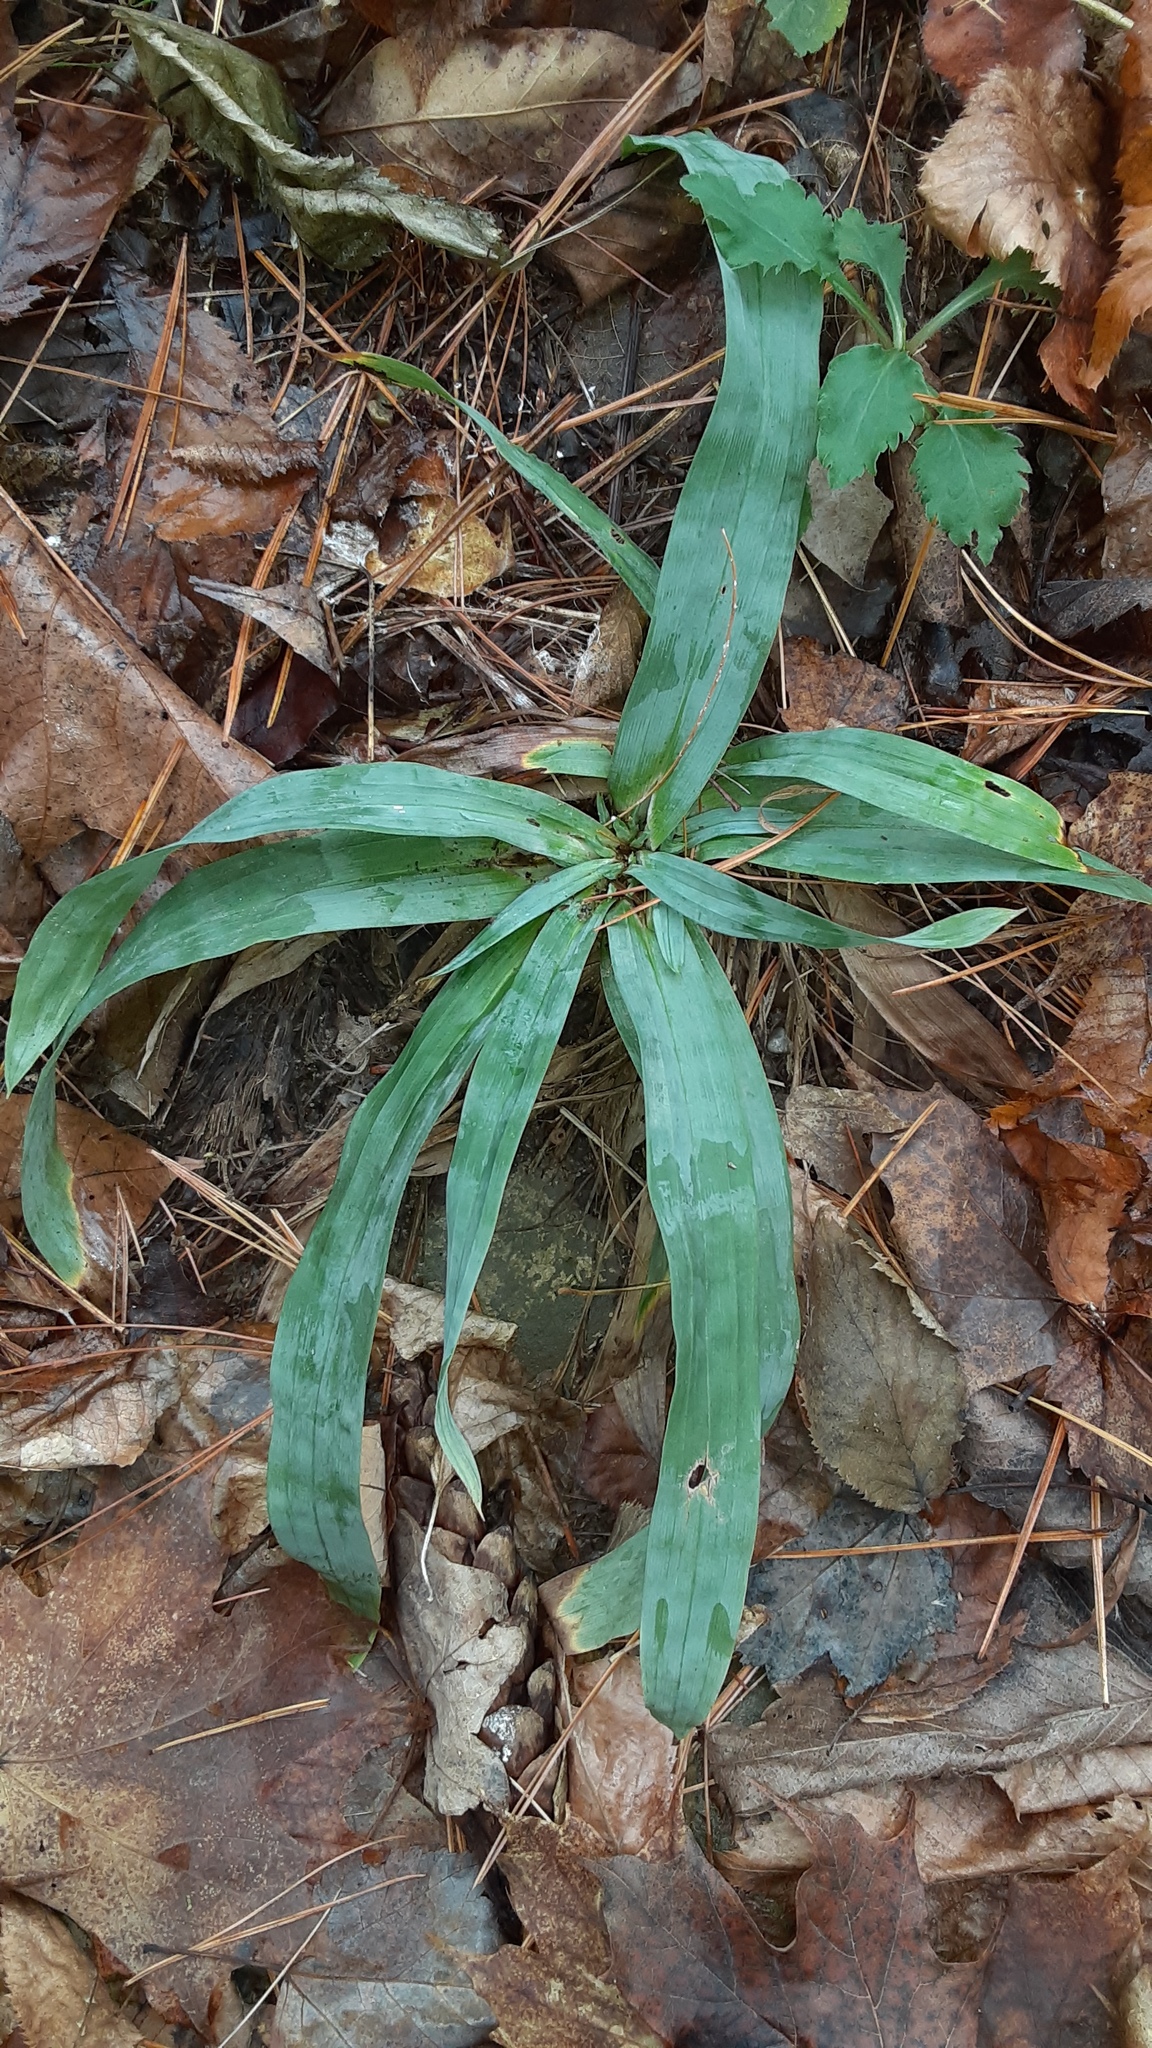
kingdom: Plantae
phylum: Tracheophyta
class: Liliopsida
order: Poales
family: Cyperaceae
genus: Carex
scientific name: Carex platyphylla
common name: Broad-leaved sedge
